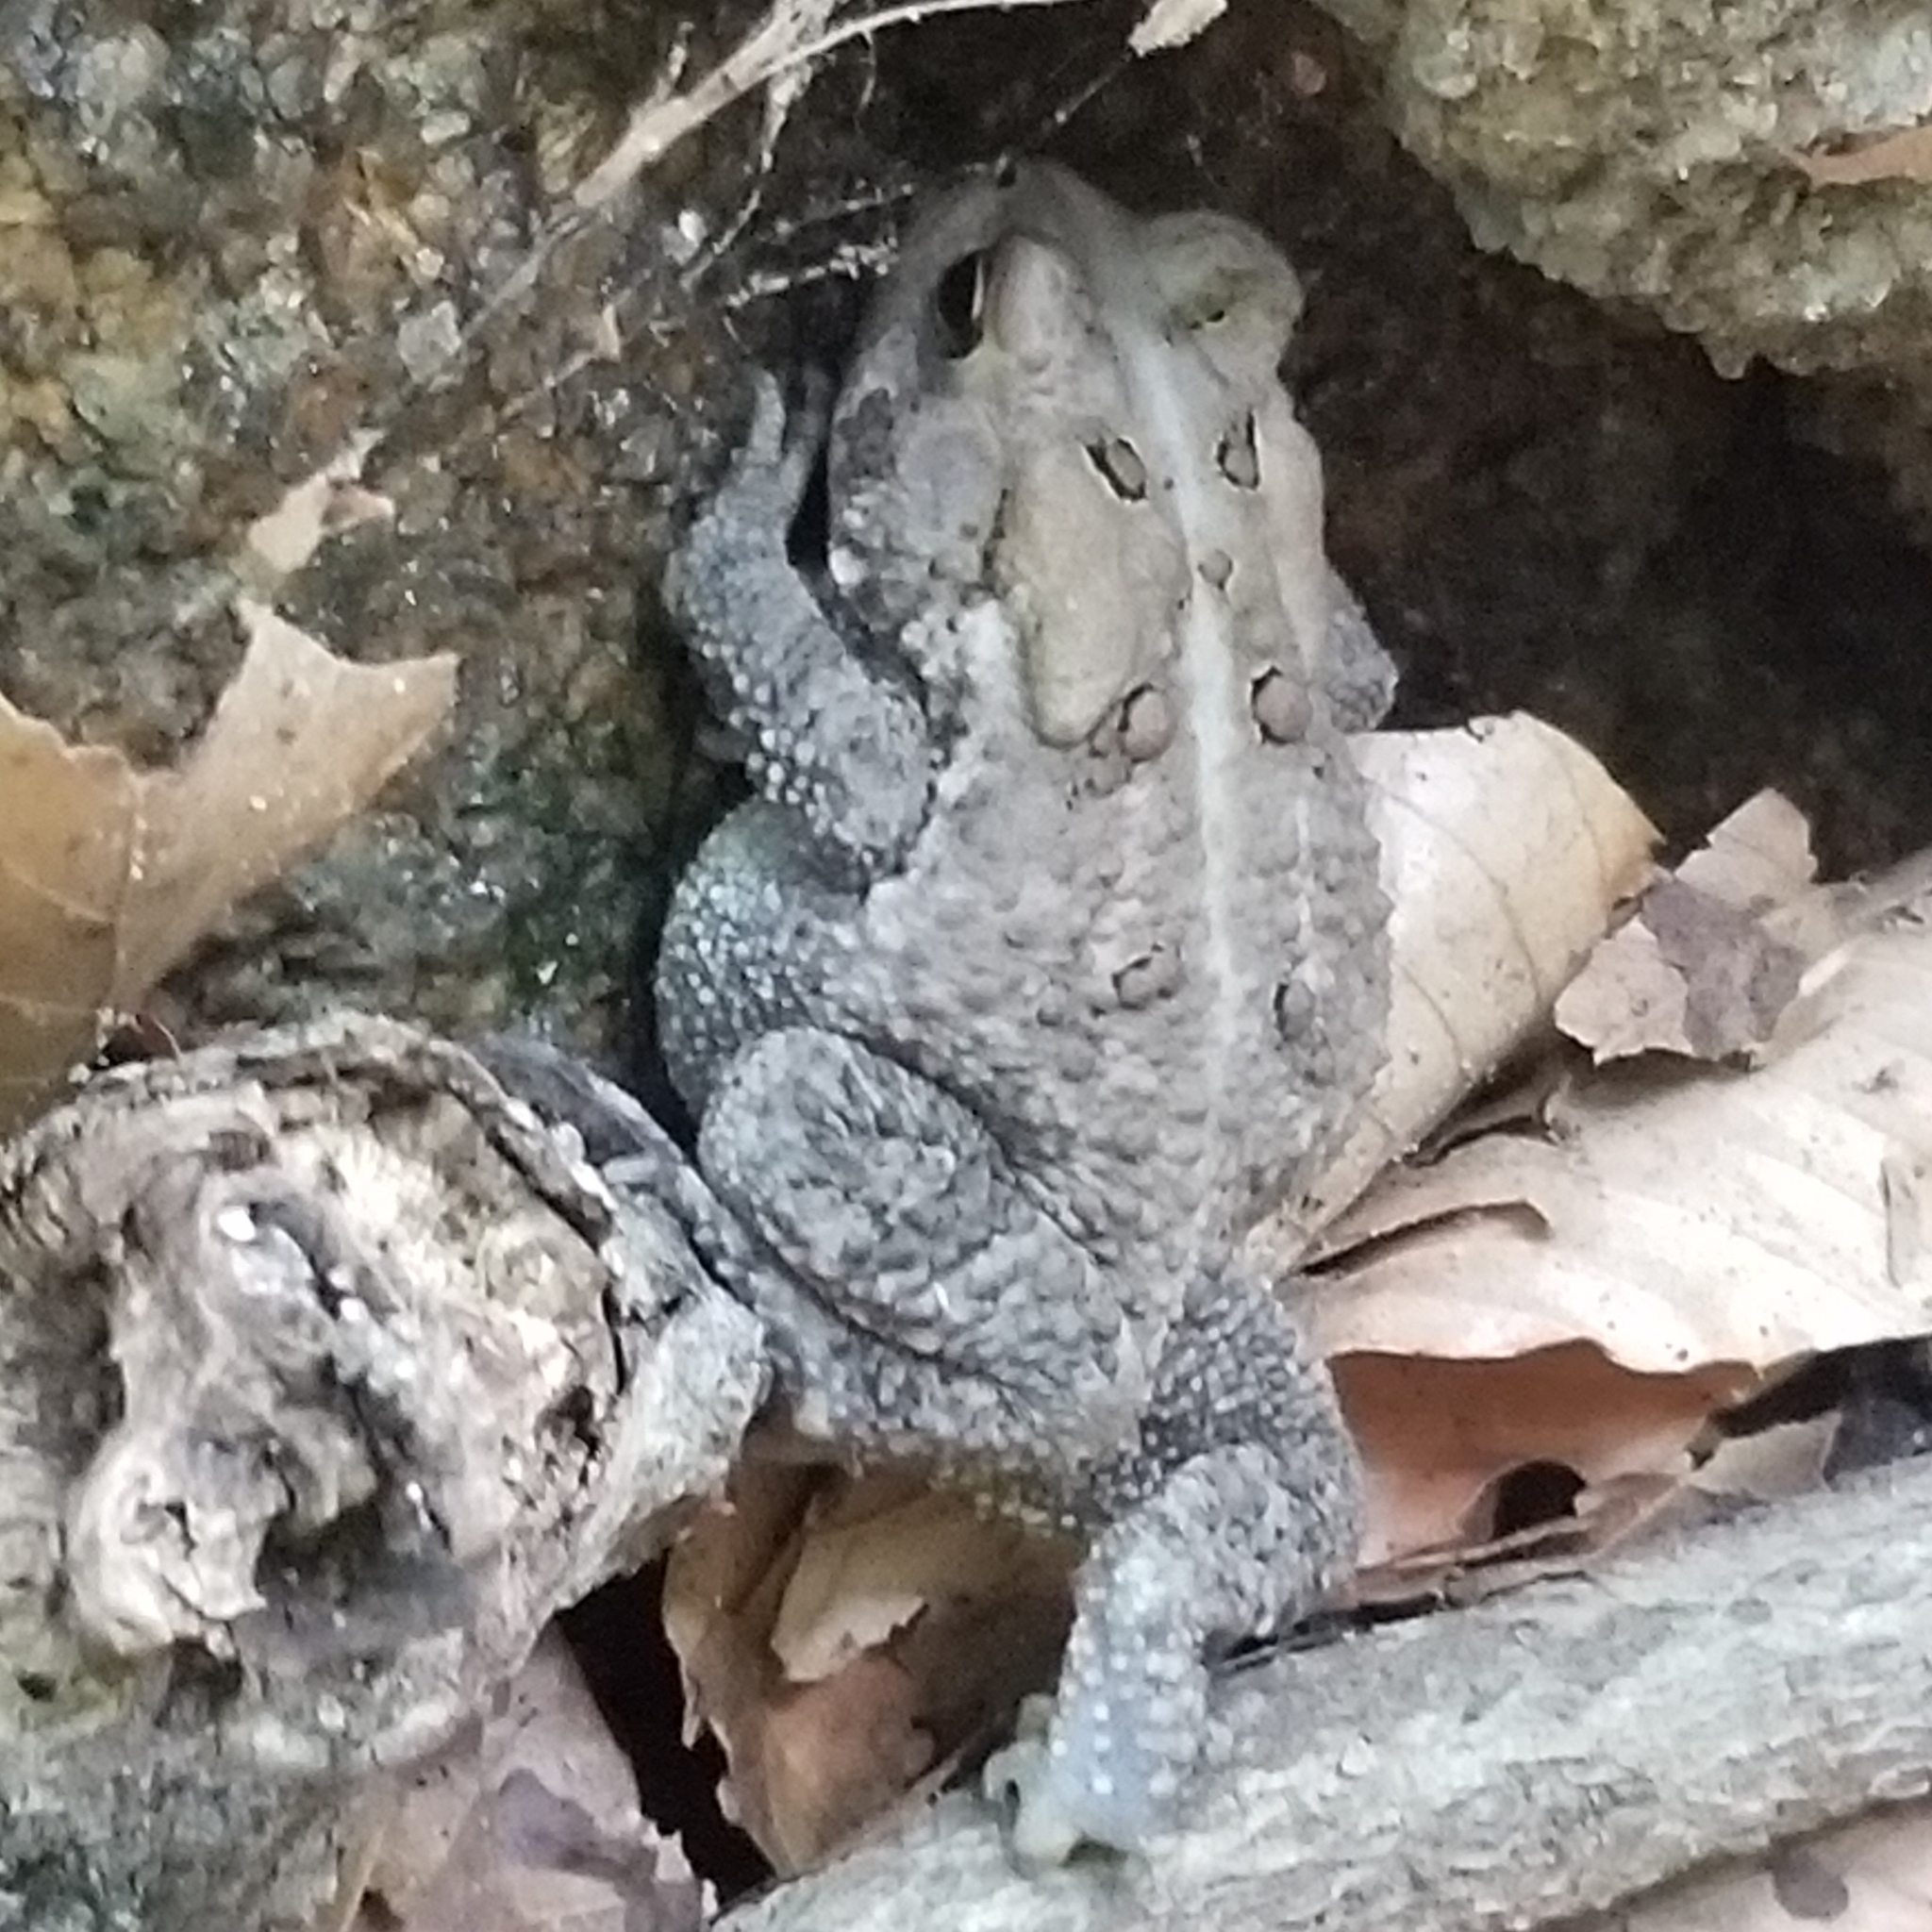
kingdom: Animalia
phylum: Chordata
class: Amphibia
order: Anura
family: Bufonidae
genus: Anaxyrus
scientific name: Anaxyrus americanus
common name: American toad
